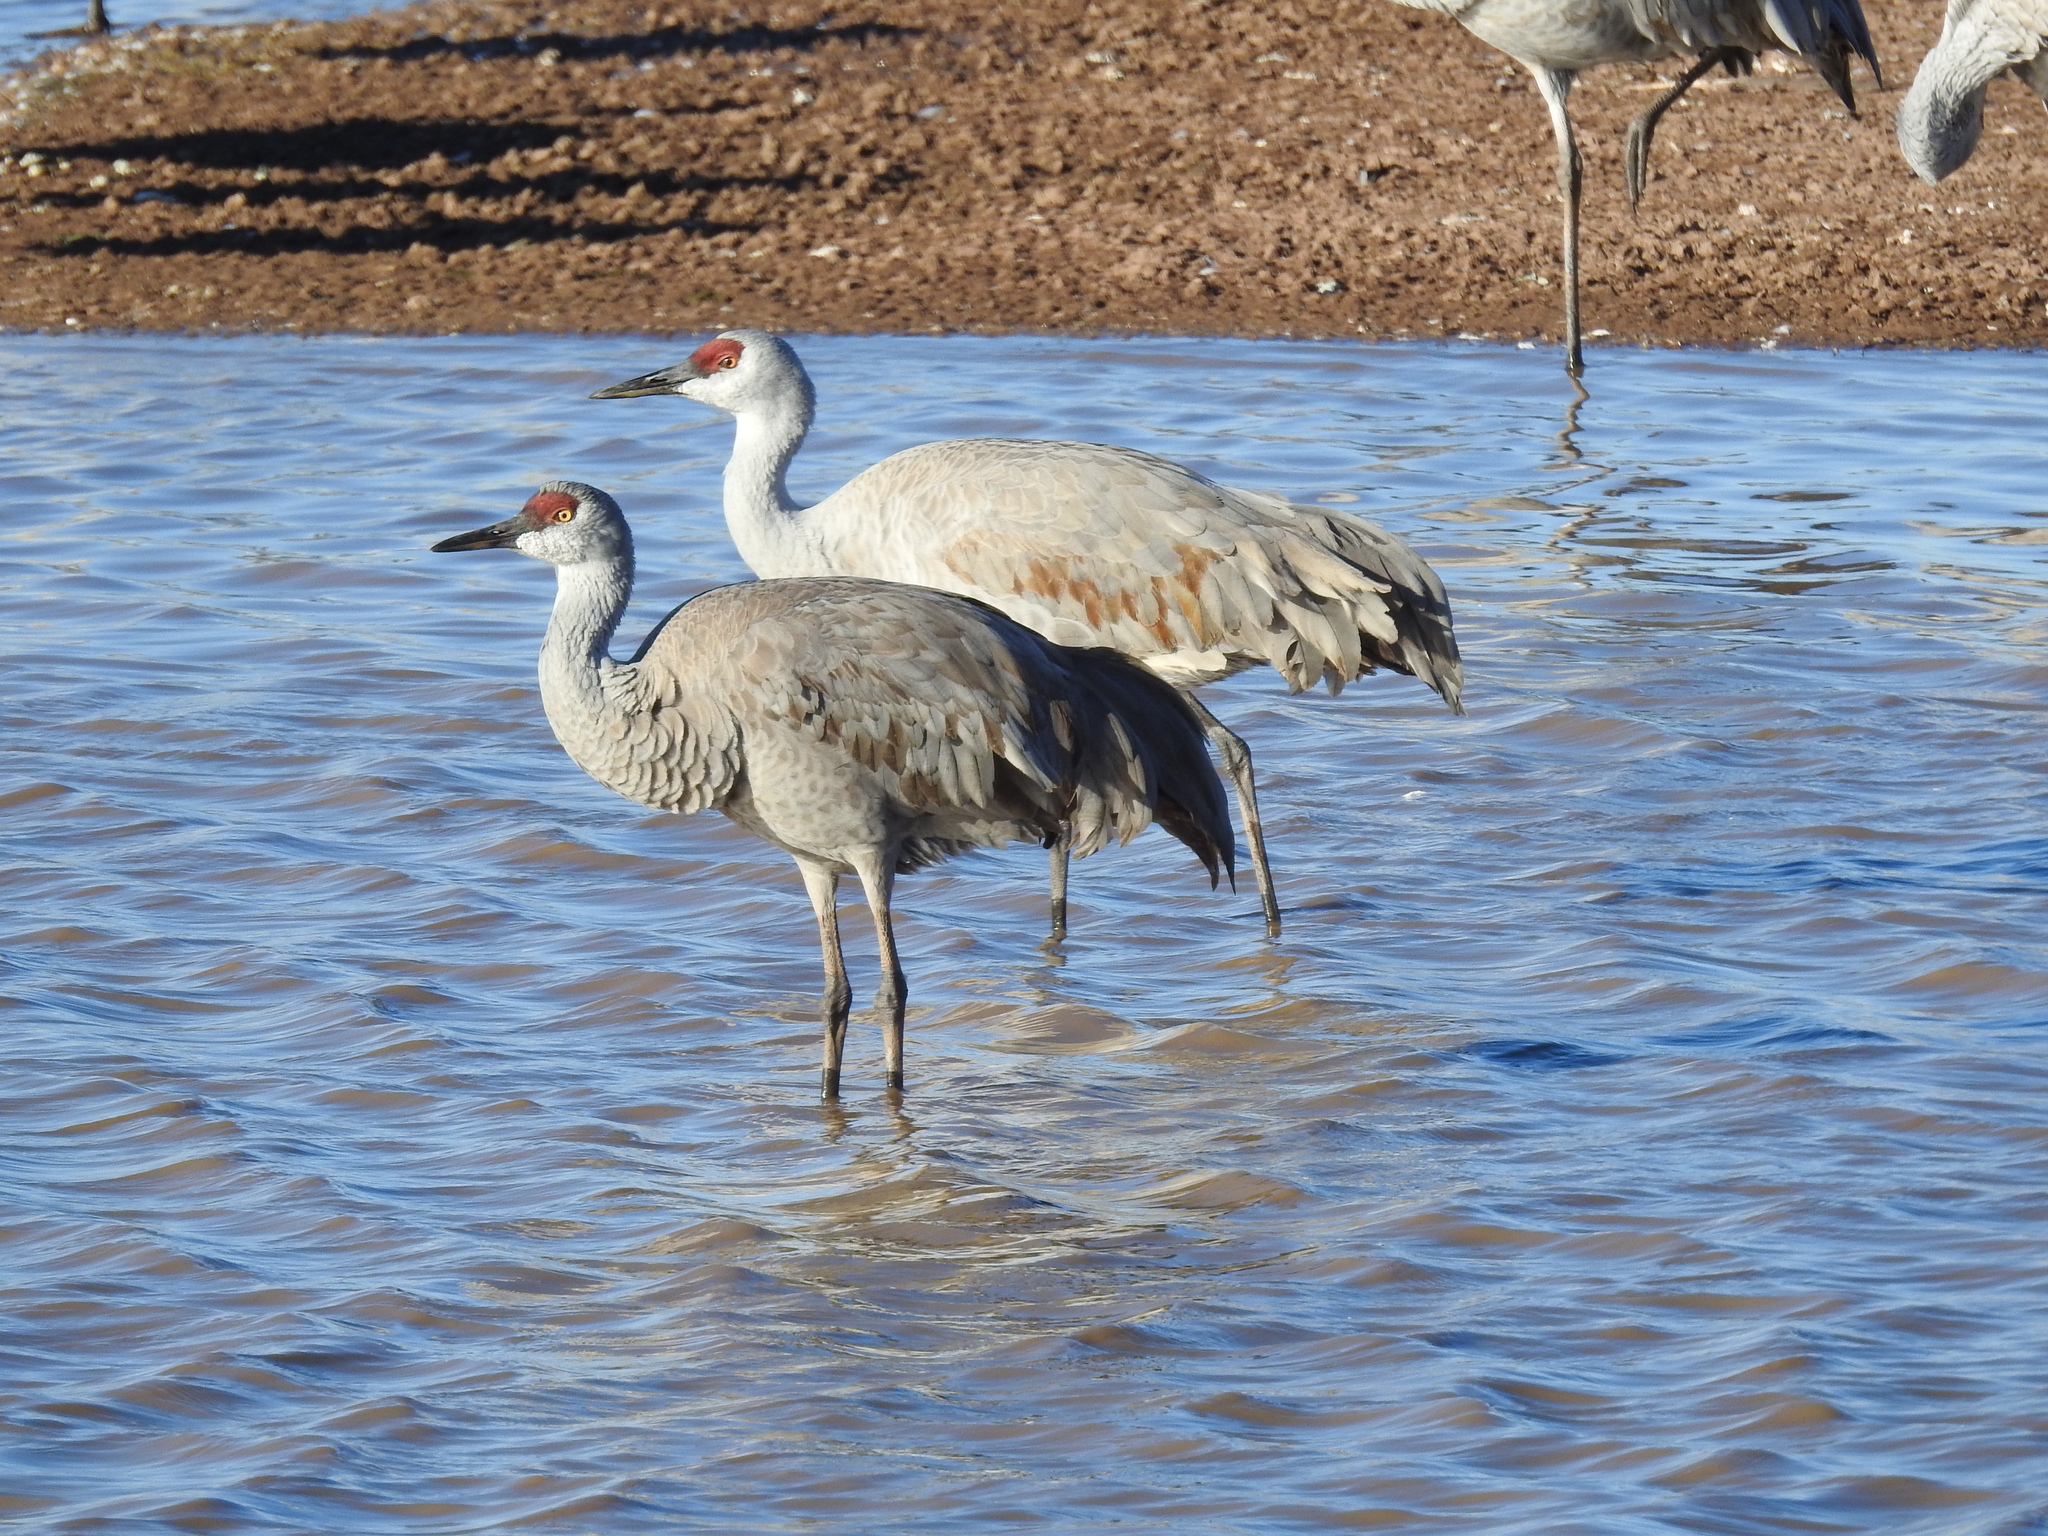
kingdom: Animalia
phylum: Chordata
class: Aves
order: Gruiformes
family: Gruidae
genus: Grus
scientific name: Grus canadensis
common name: Sandhill crane
